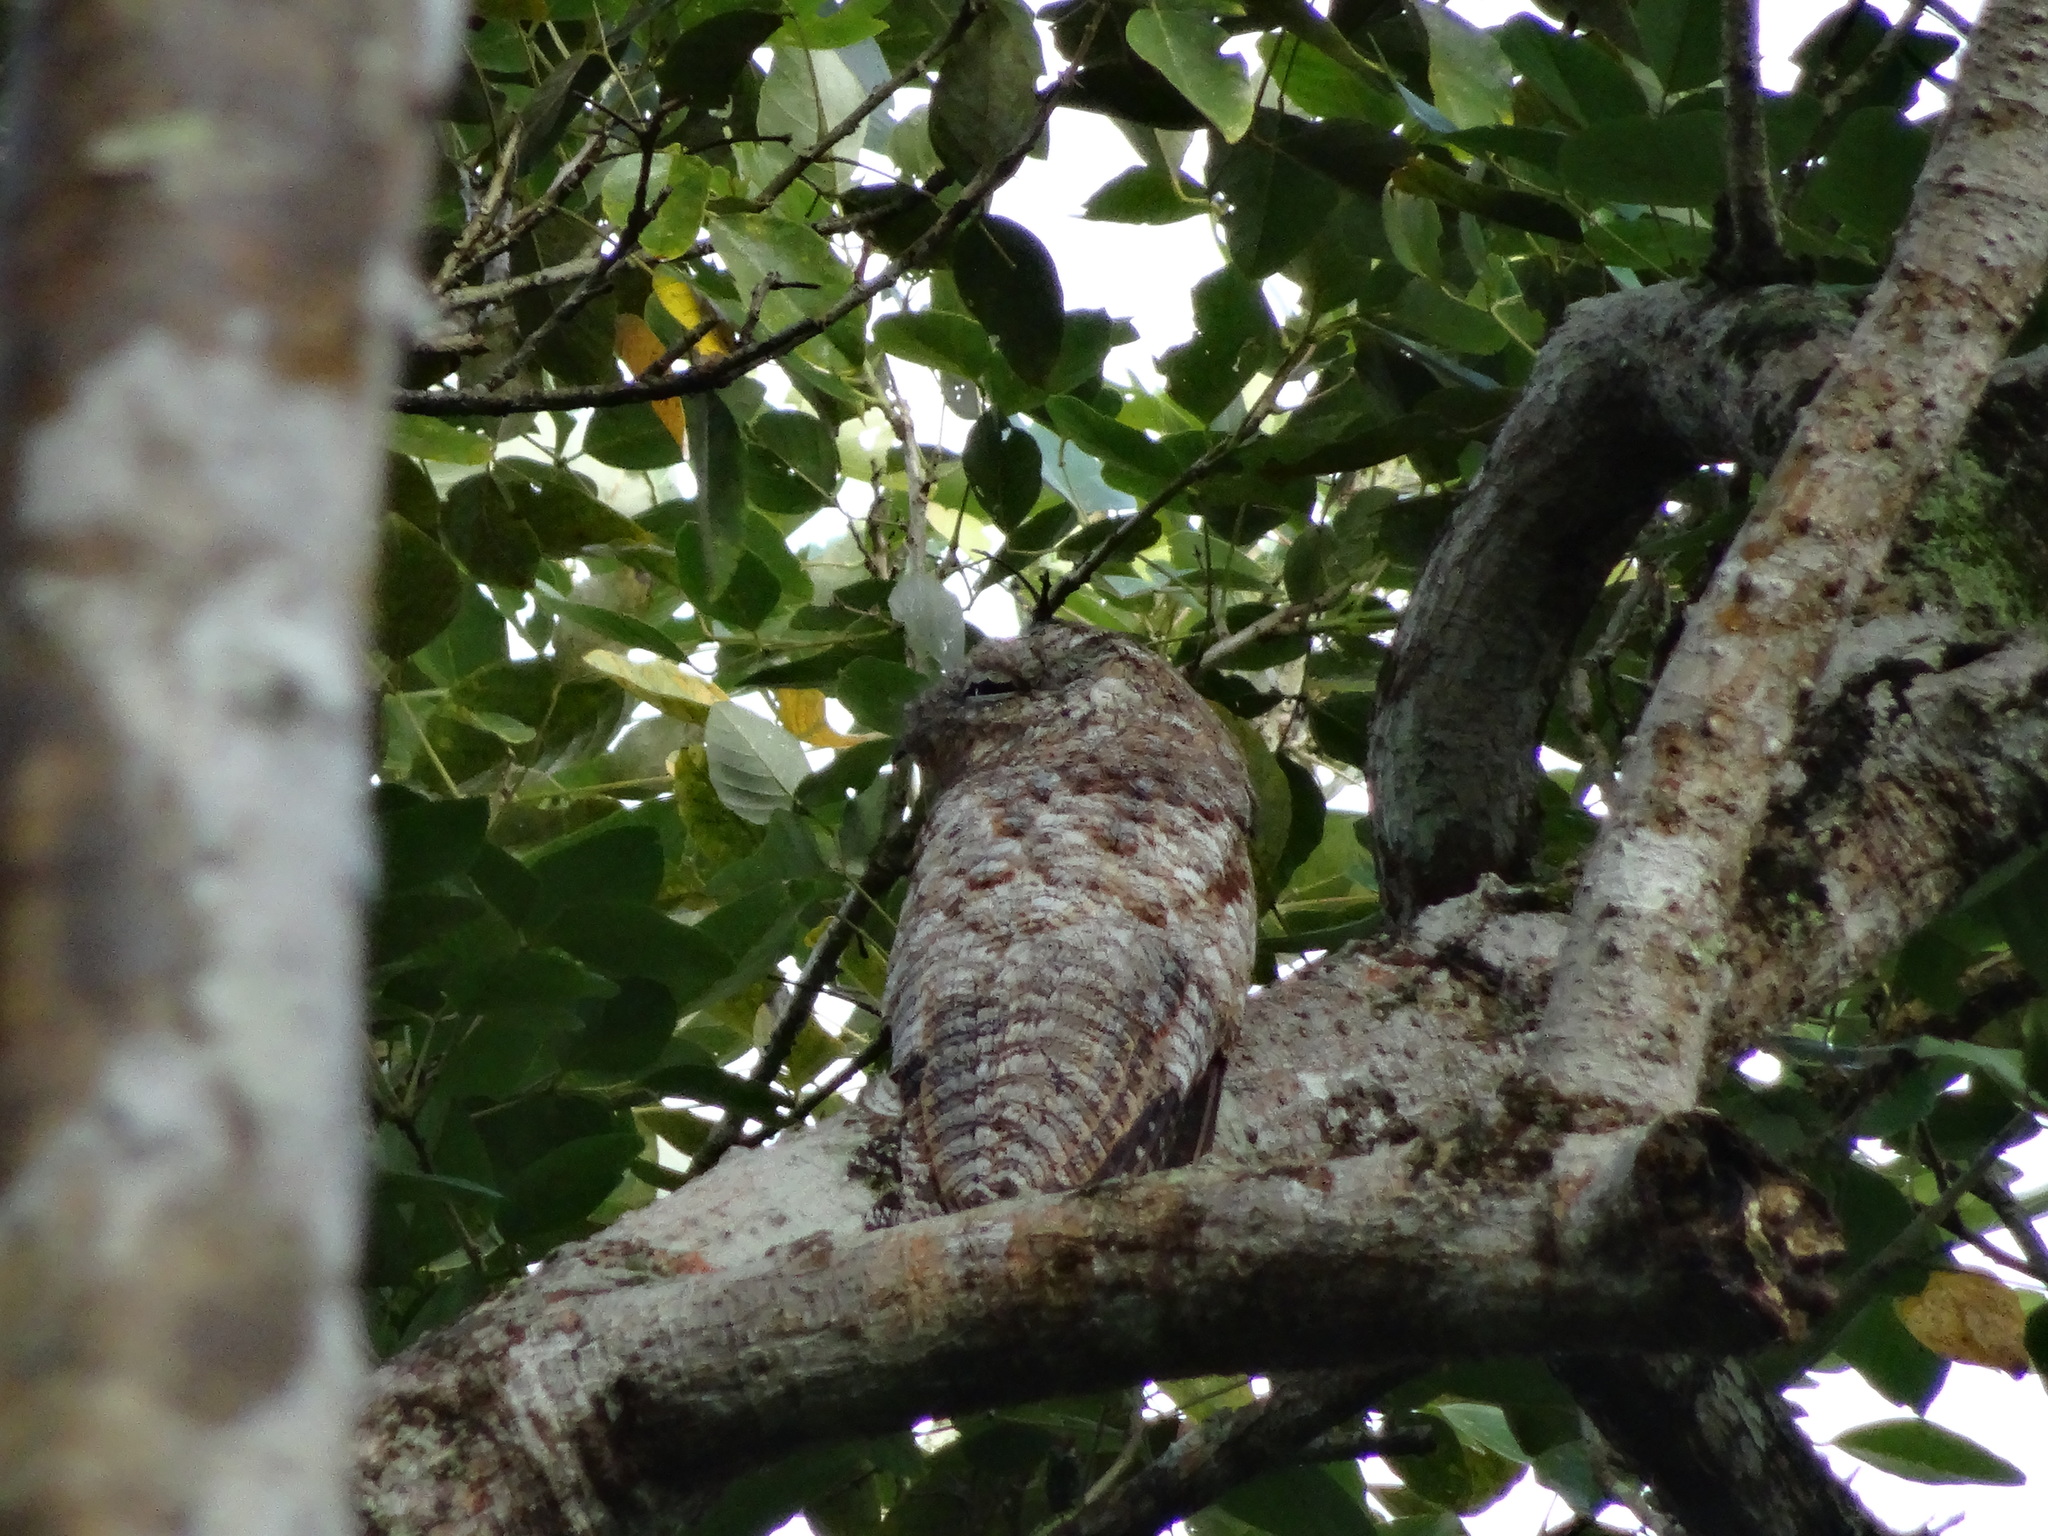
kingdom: Animalia
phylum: Chordata
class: Aves
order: Nyctibiiformes
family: Nyctibiidae
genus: Nyctibius
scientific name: Nyctibius grandis
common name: Great potoo
